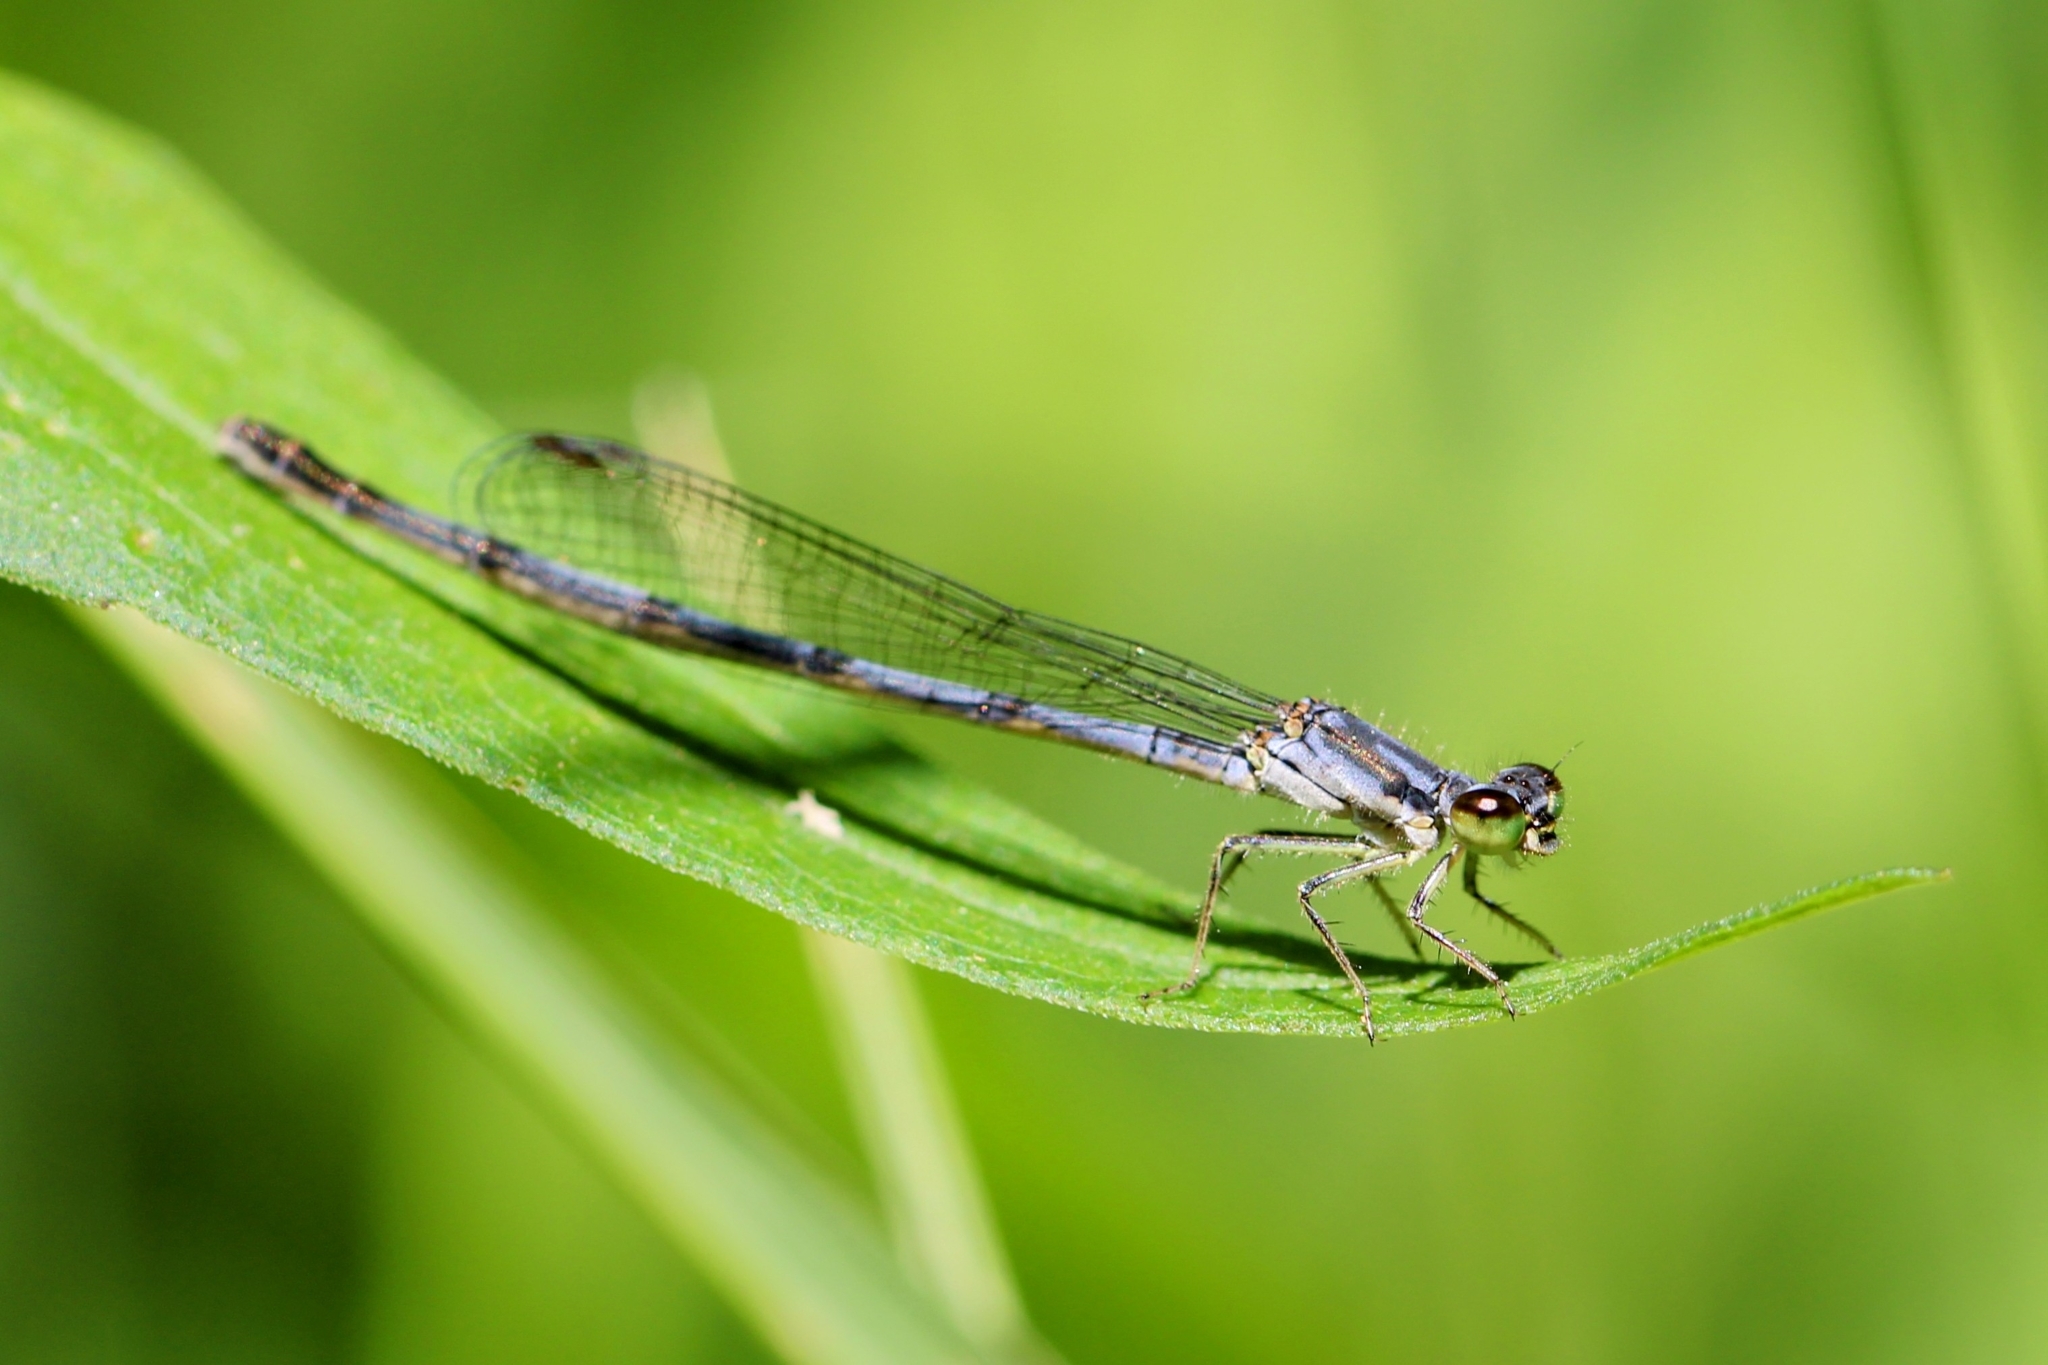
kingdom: Animalia
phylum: Arthropoda
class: Insecta
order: Odonata
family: Coenagrionidae
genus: Ischnura
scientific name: Ischnura posita
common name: Fragile forktail
